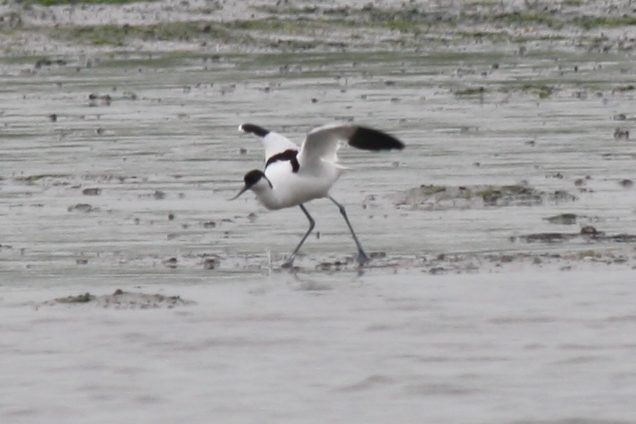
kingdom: Animalia
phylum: Chordata
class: Aves
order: Charadriiformes
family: Recurvirostridae
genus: Recurvirostra
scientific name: Recurvirostra avosetta
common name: Pied avocet
